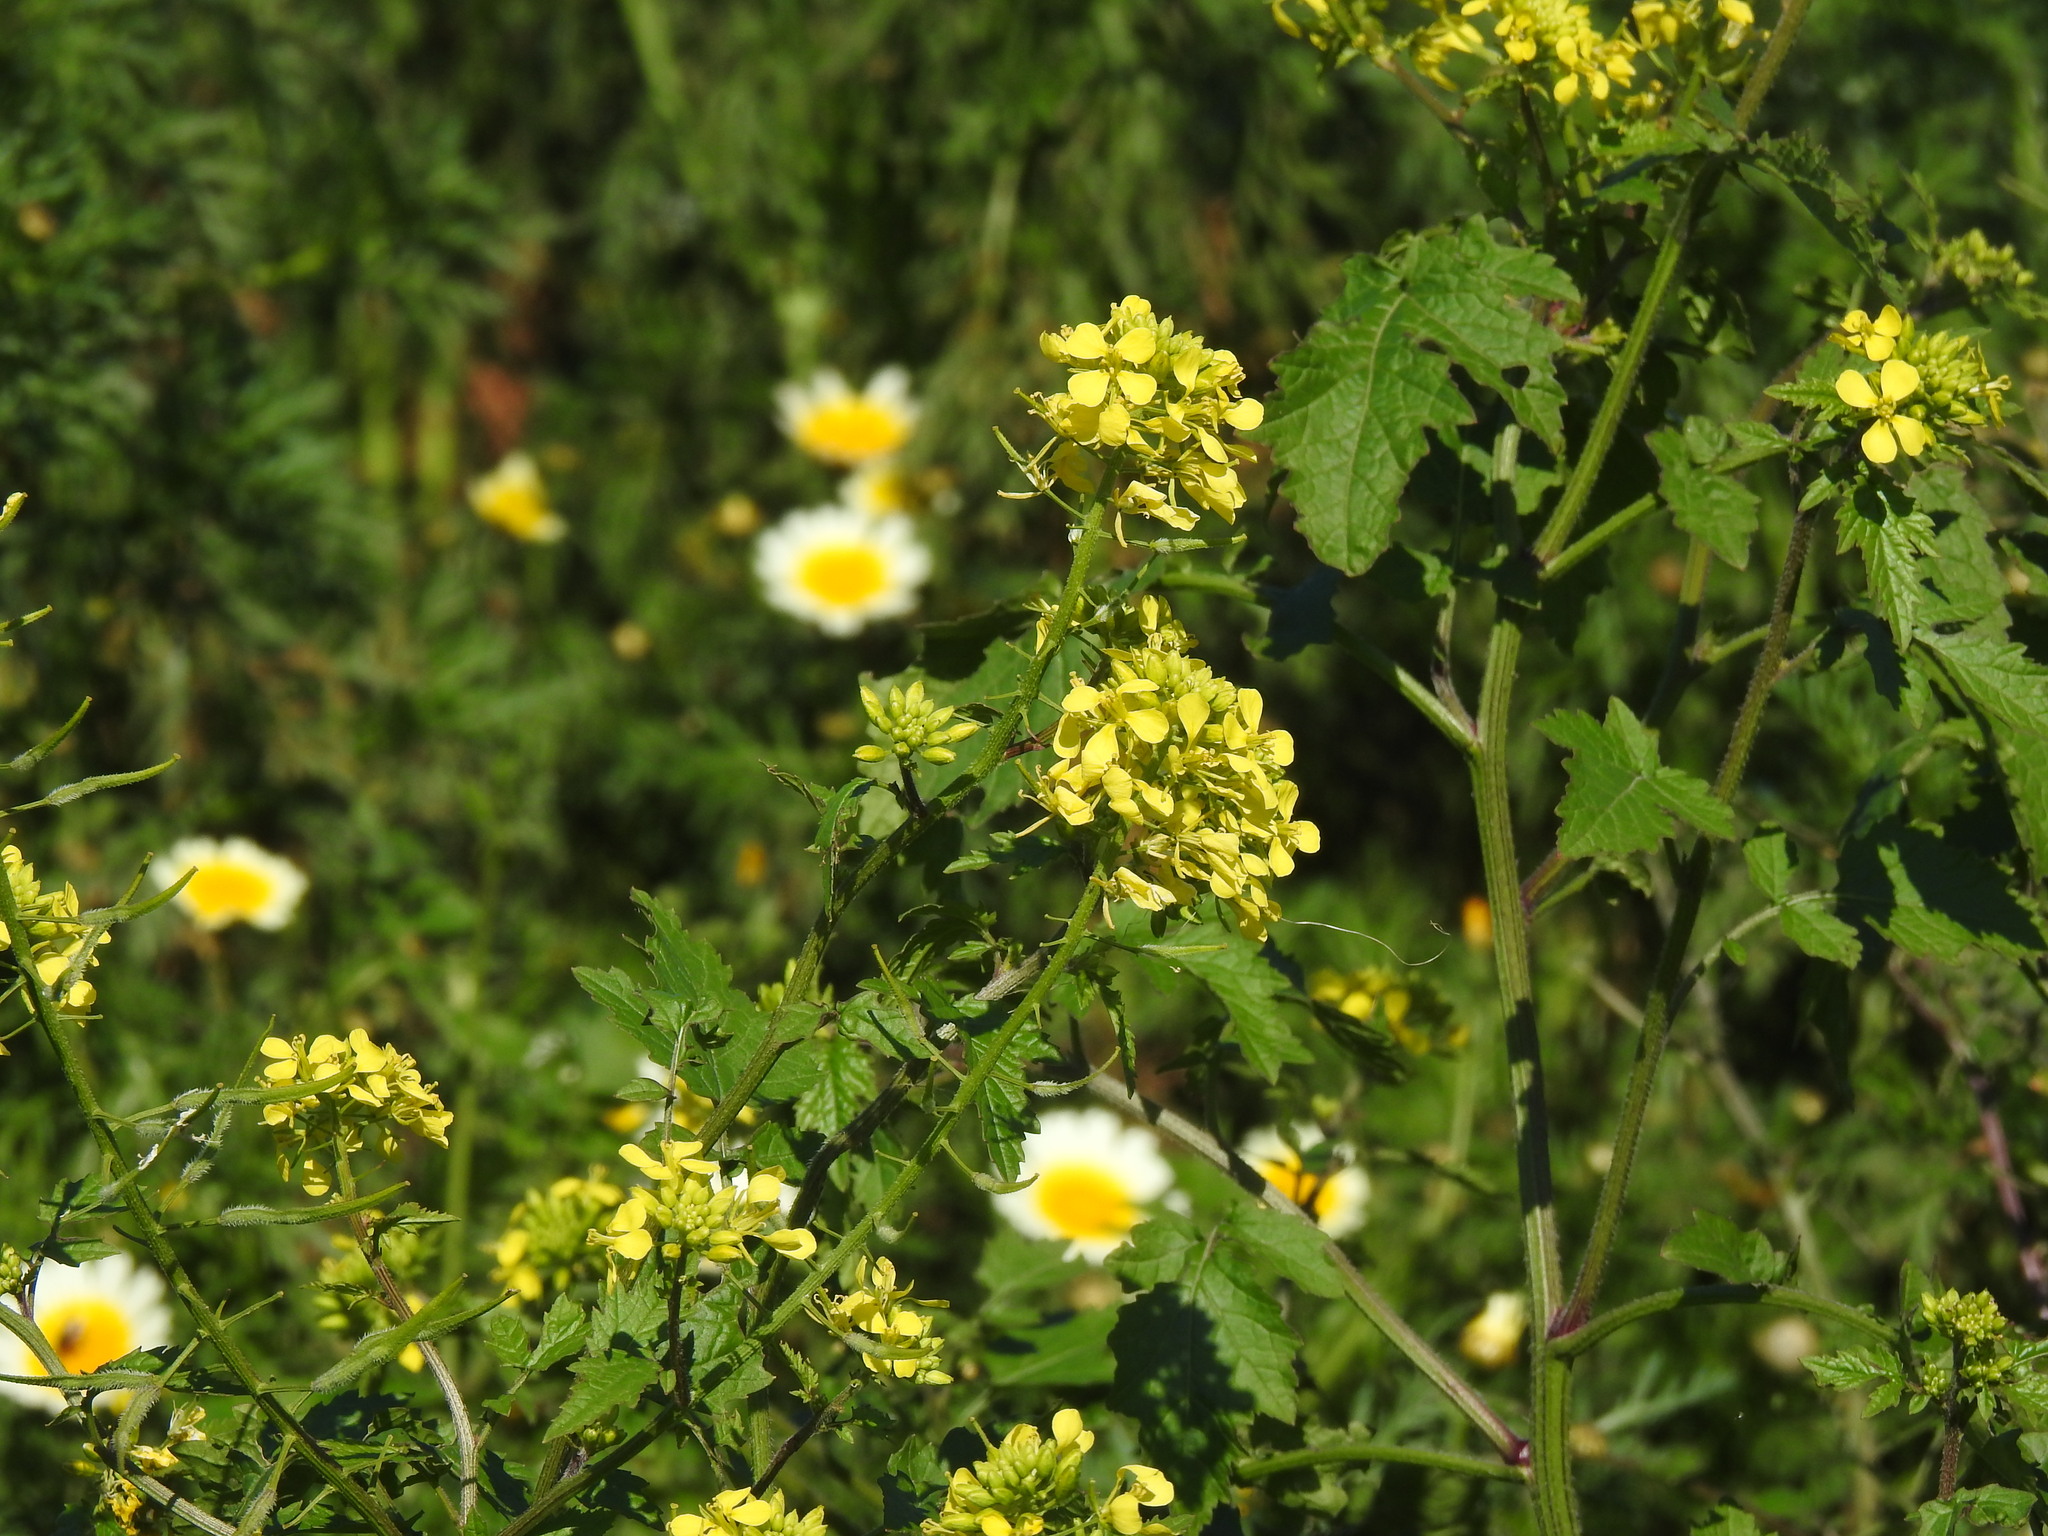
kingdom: Plantae
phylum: Tracheophyta
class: Magnoliopsida
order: Brassicales
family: Brassicaceae
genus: Sinapis
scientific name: Sinapis alba
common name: White mustard
